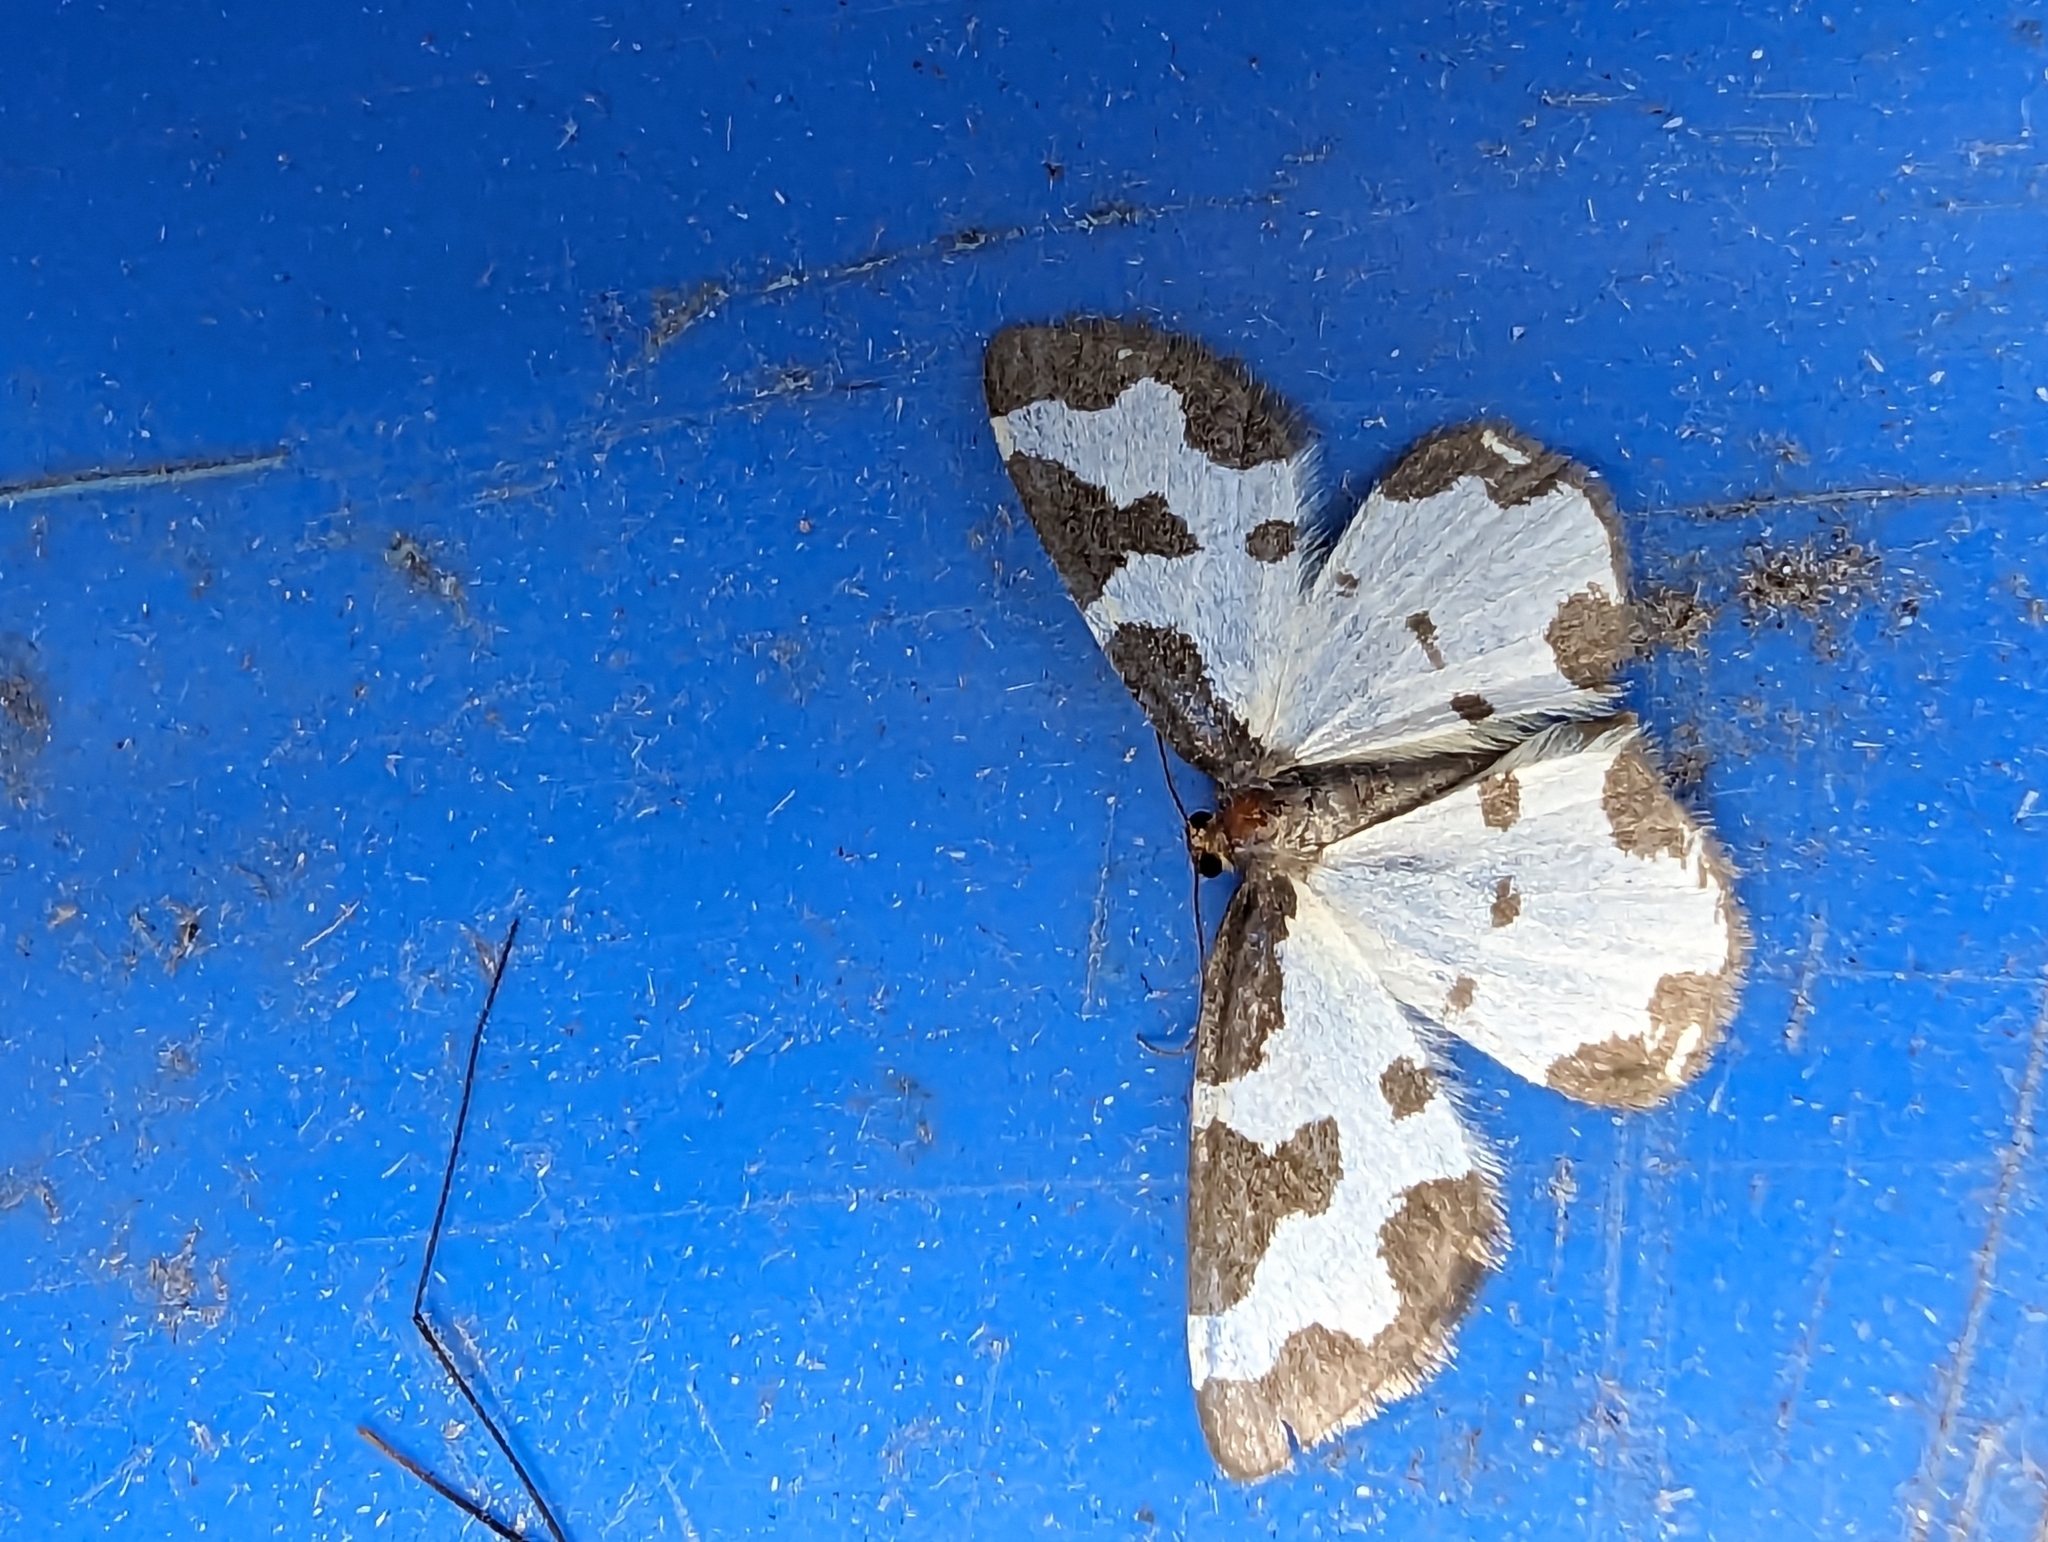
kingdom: Animalia
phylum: Arthropoda
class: Insecta
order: Lepidoptera
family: Geometridae
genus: Lomaspilis
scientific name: Lomaspilis marginata
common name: Clouded border
